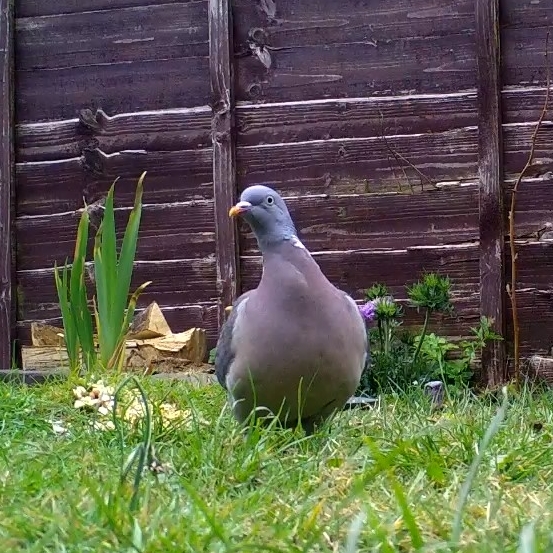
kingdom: Animalia
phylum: Chordata
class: Aves
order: Columbiformes
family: Columbidae
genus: Columba
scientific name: Columba palumbus
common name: Common wood pigeon
